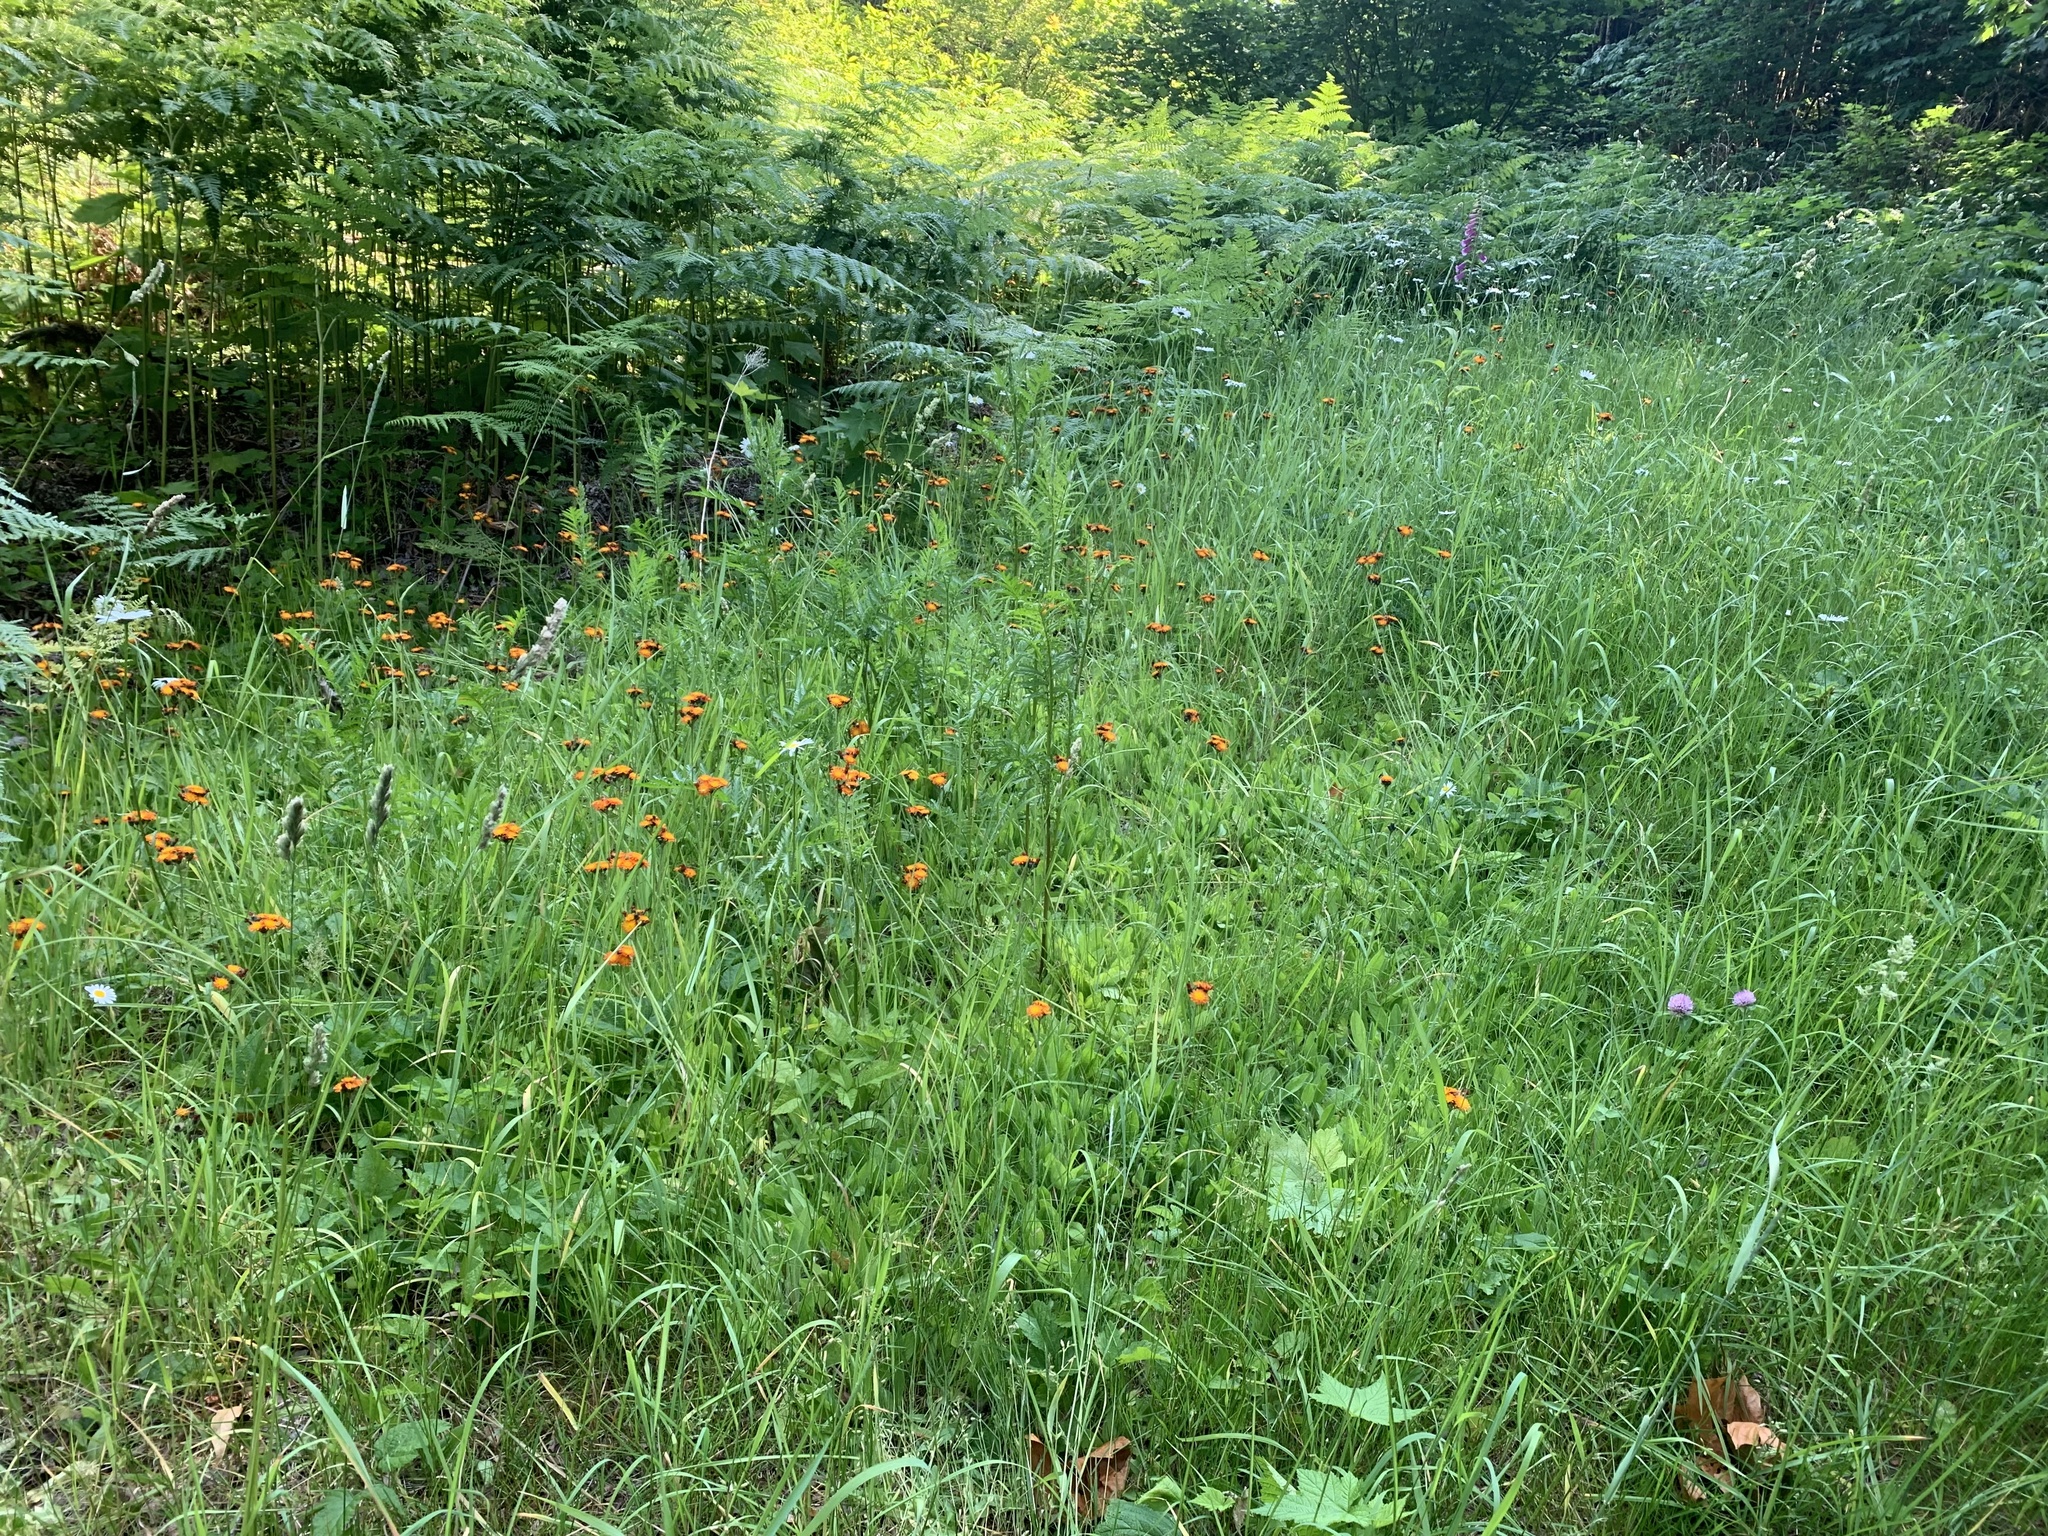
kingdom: Plantae
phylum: Tracheophyta
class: Magnoliopsida
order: Asterales
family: Asteraceae
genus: Pilosella
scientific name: Pilosella aurantiaca
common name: Fox-and-cubs
